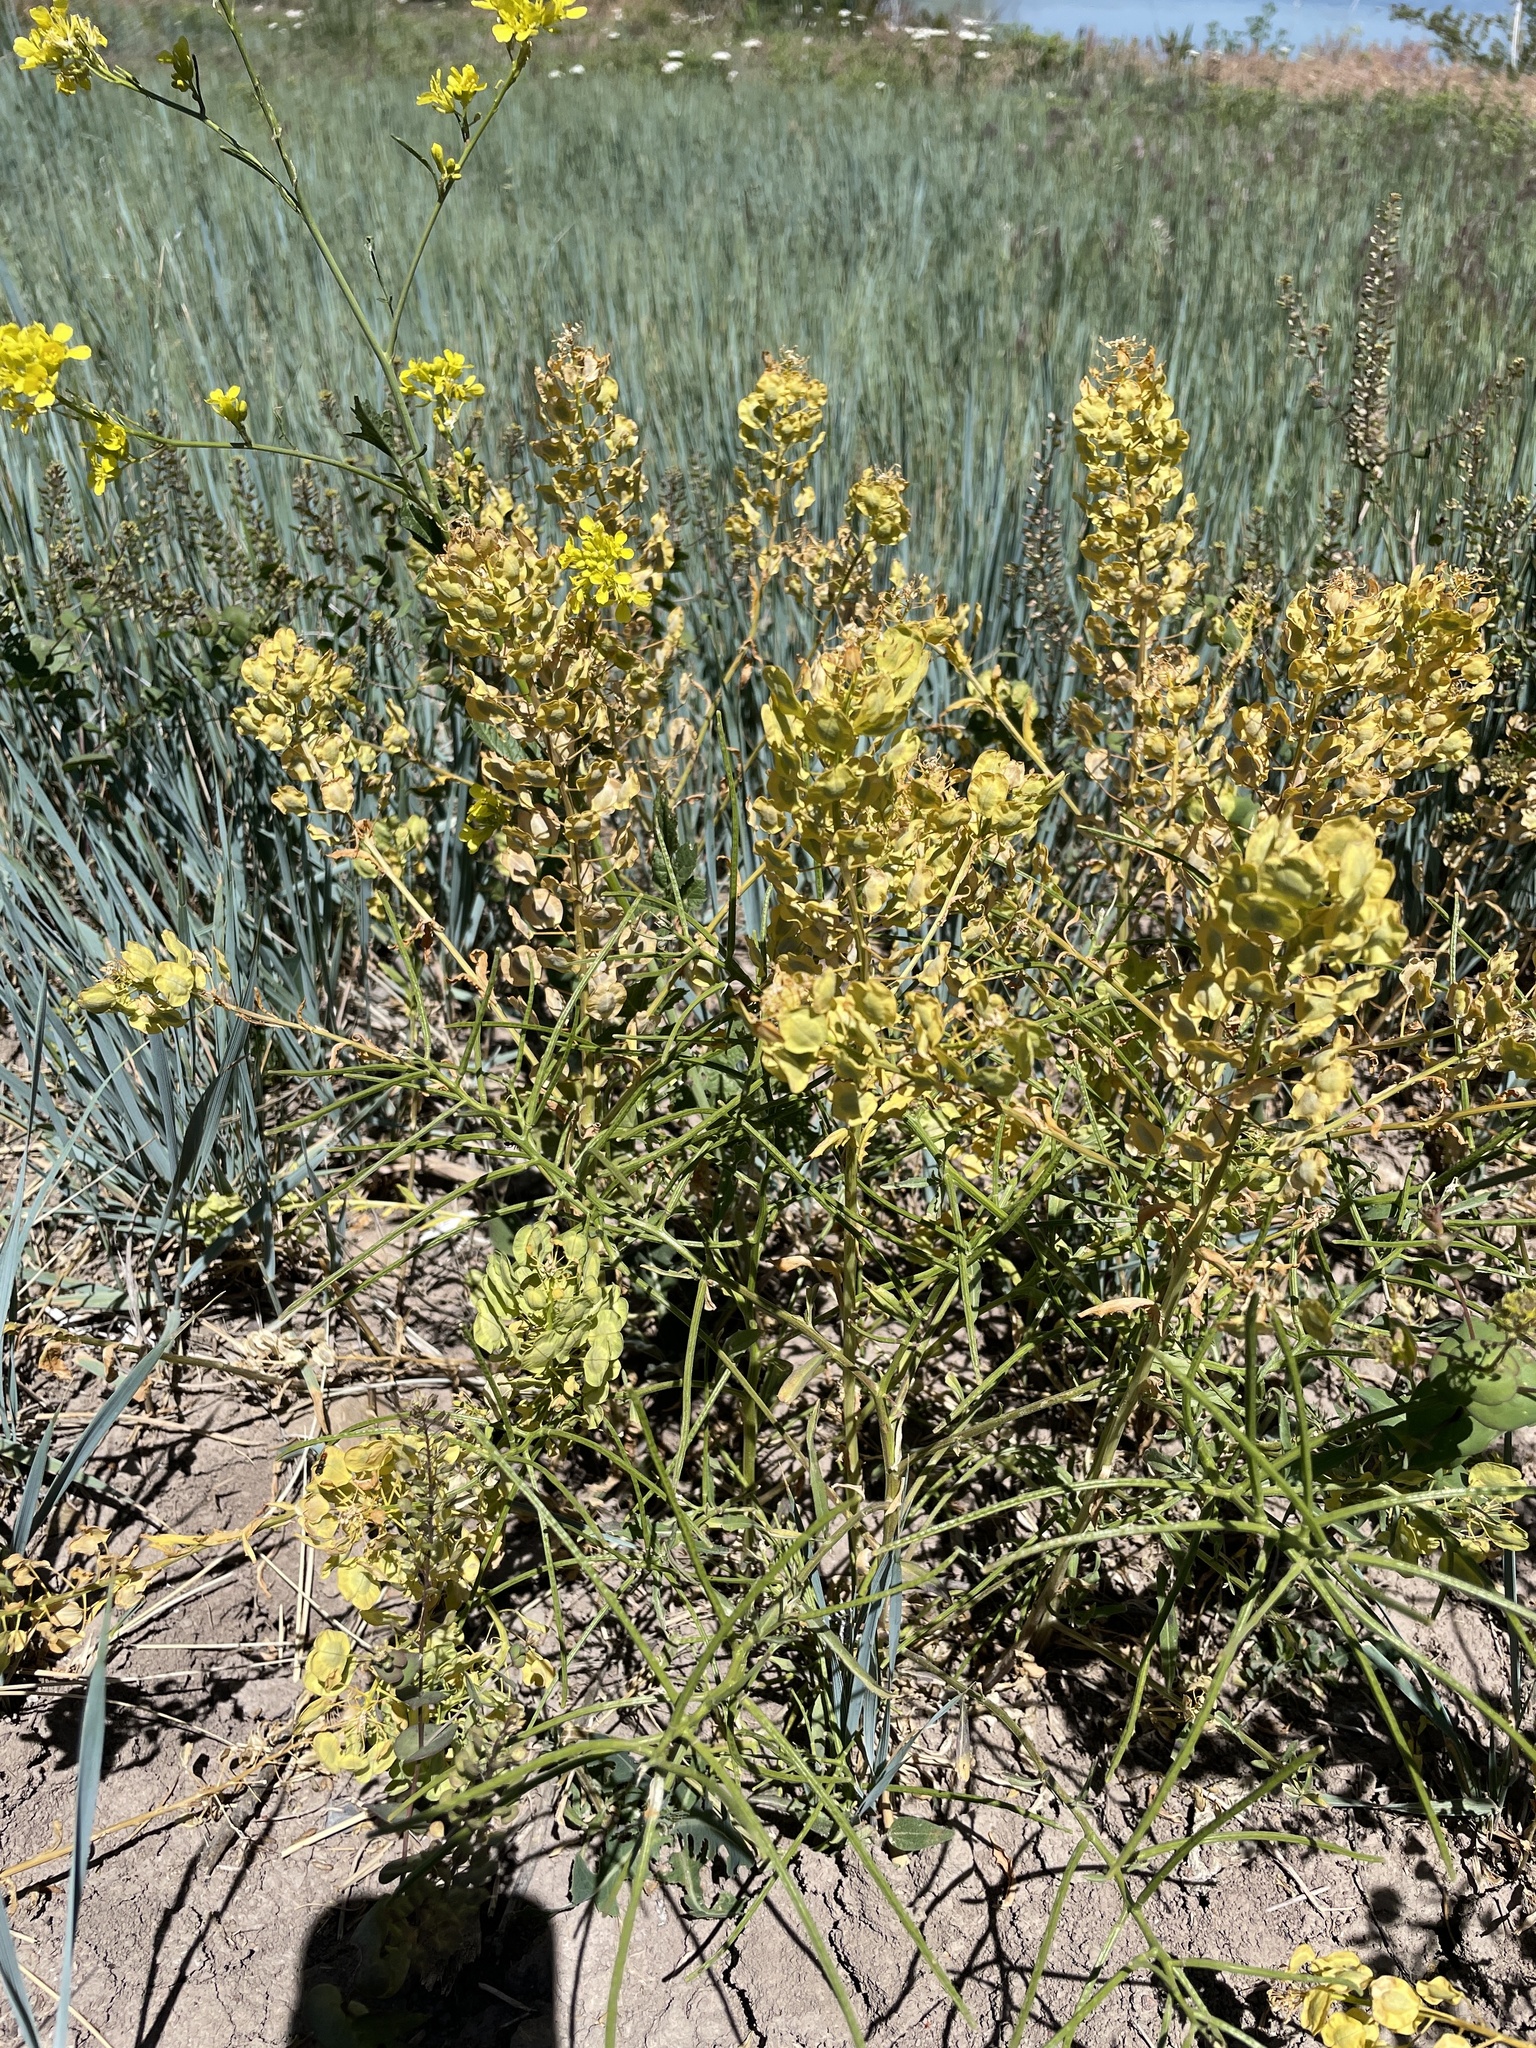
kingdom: Plantae
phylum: Tracheophyta
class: Magnoliopsida
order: Brassicales
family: Brassicaceae
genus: Thlaspi
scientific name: Thlaspi arvense
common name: Field pennycress
